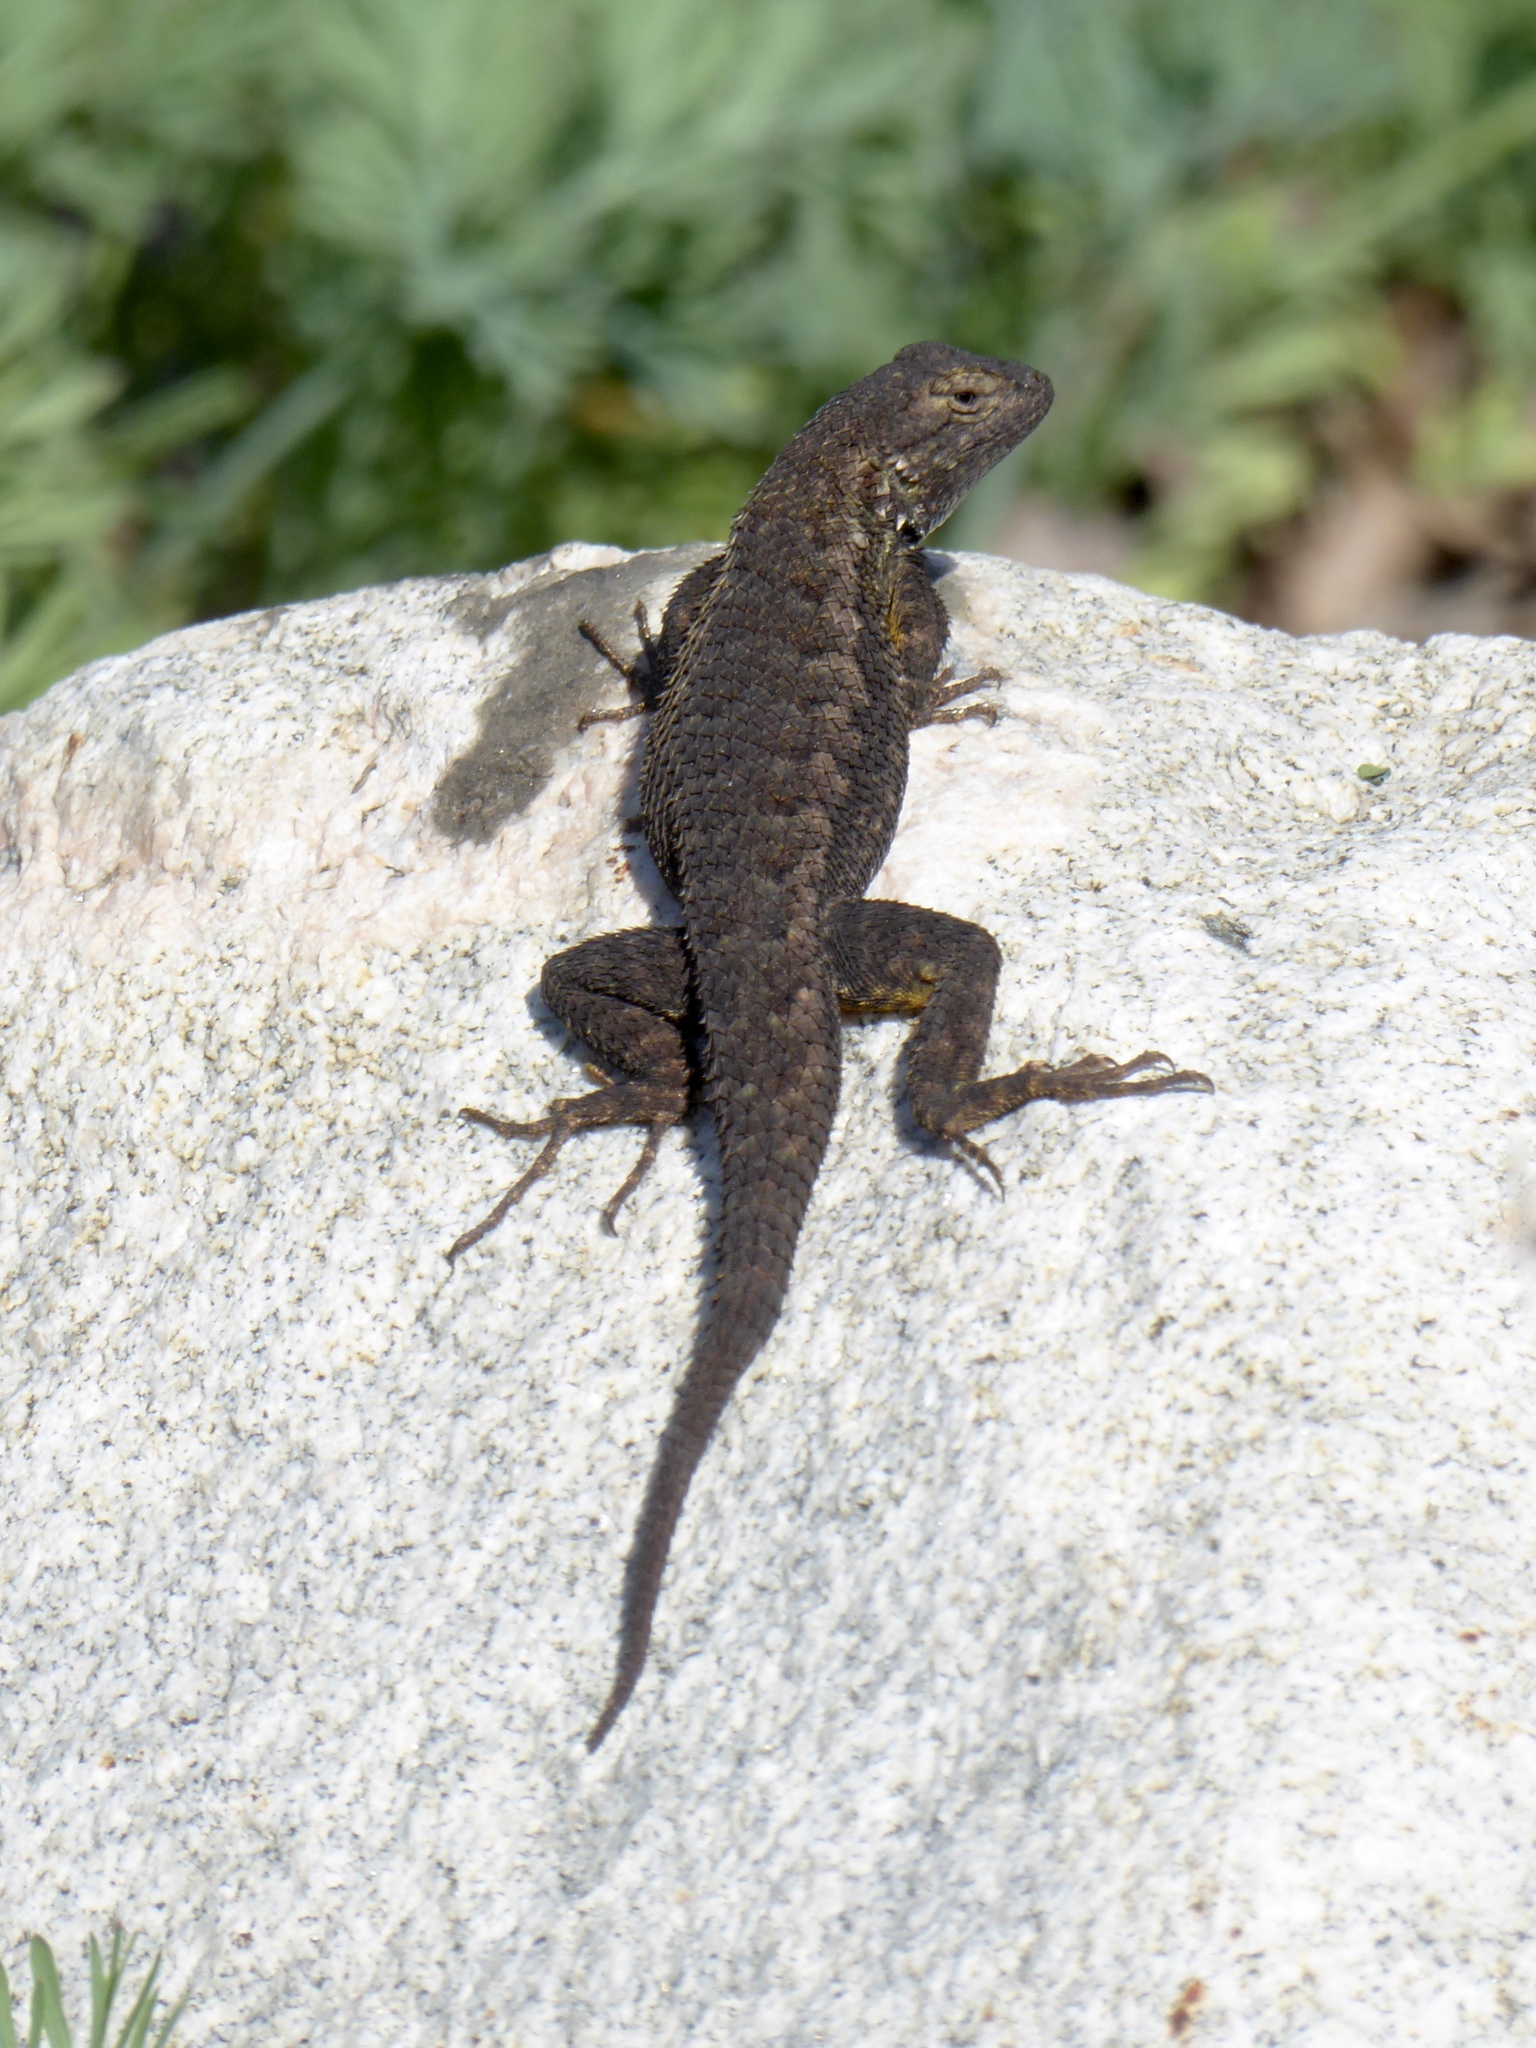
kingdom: Animalia
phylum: Chordata
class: Squamata
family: Phrynosomatidae
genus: Sceloporus
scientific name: Sceloporus occidentalis
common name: Western fence lizard
